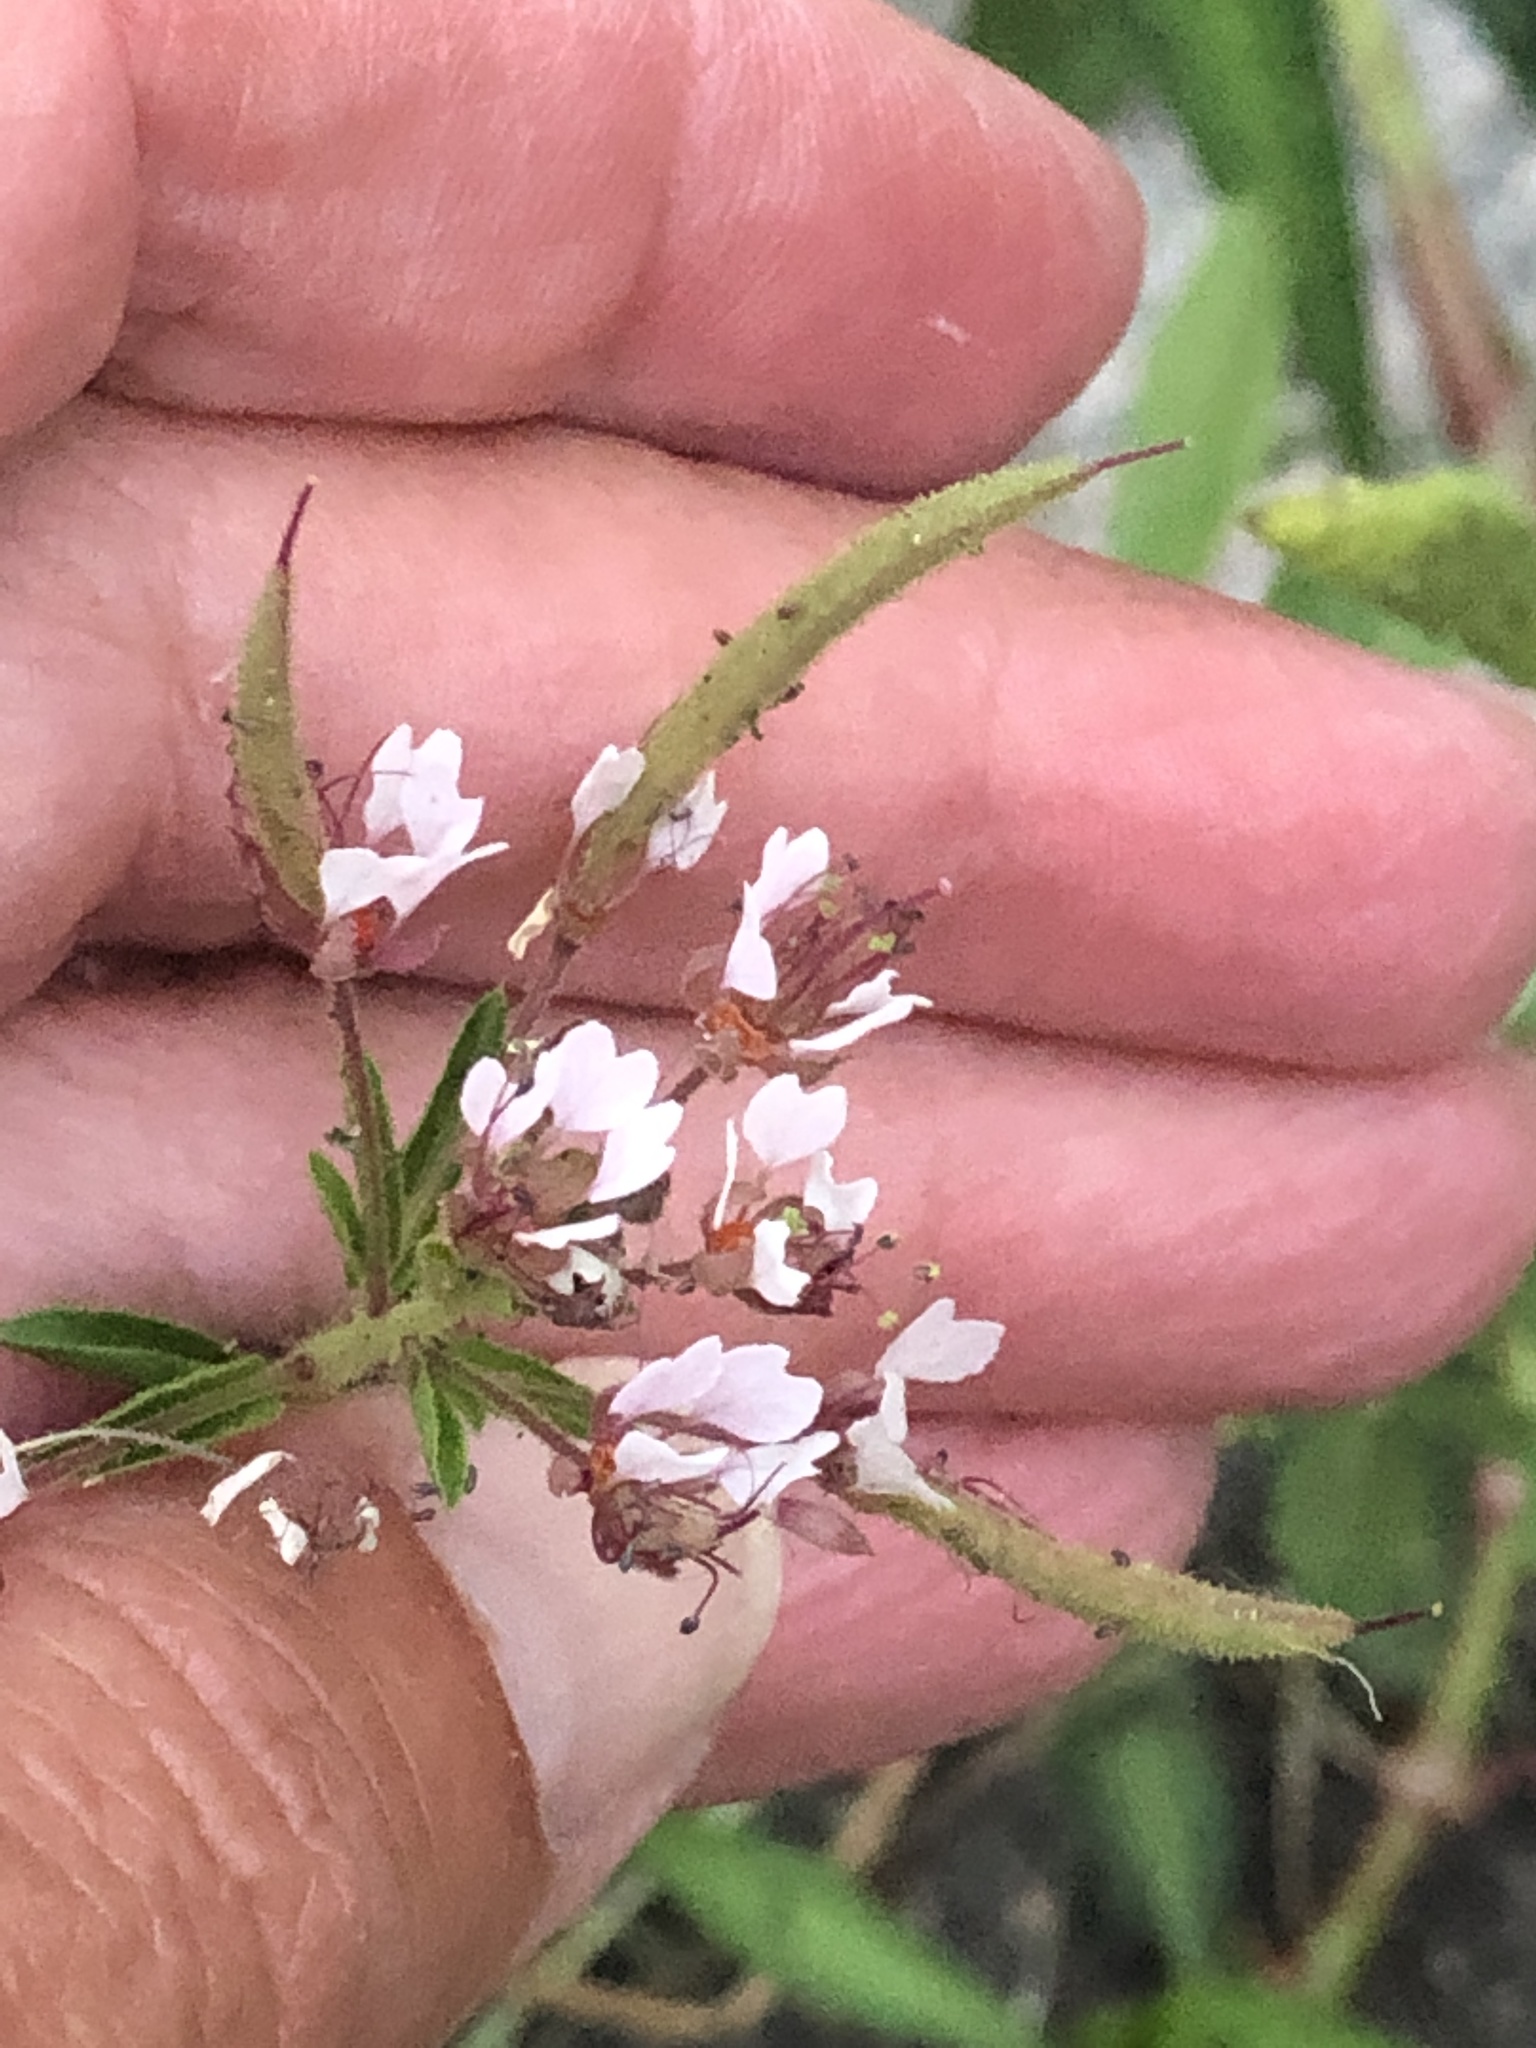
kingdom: Plantae
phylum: Tracheophyta
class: Magnoliopsida
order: Brassicales
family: Cleomaceae
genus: Polanisia
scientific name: Polanisia dodecandra
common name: Clammyweed
